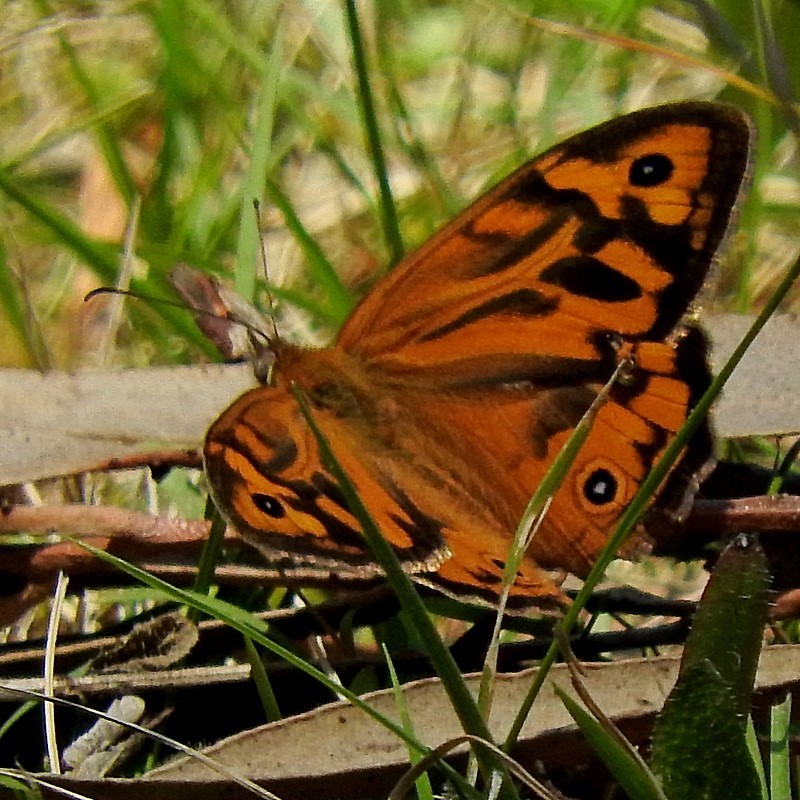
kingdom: Animalia
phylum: Arthropoda
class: Insecta
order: Lepidoptera
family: Nymphalidae
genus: Heteronympha
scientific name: Heteronympha merope
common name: Common brown
